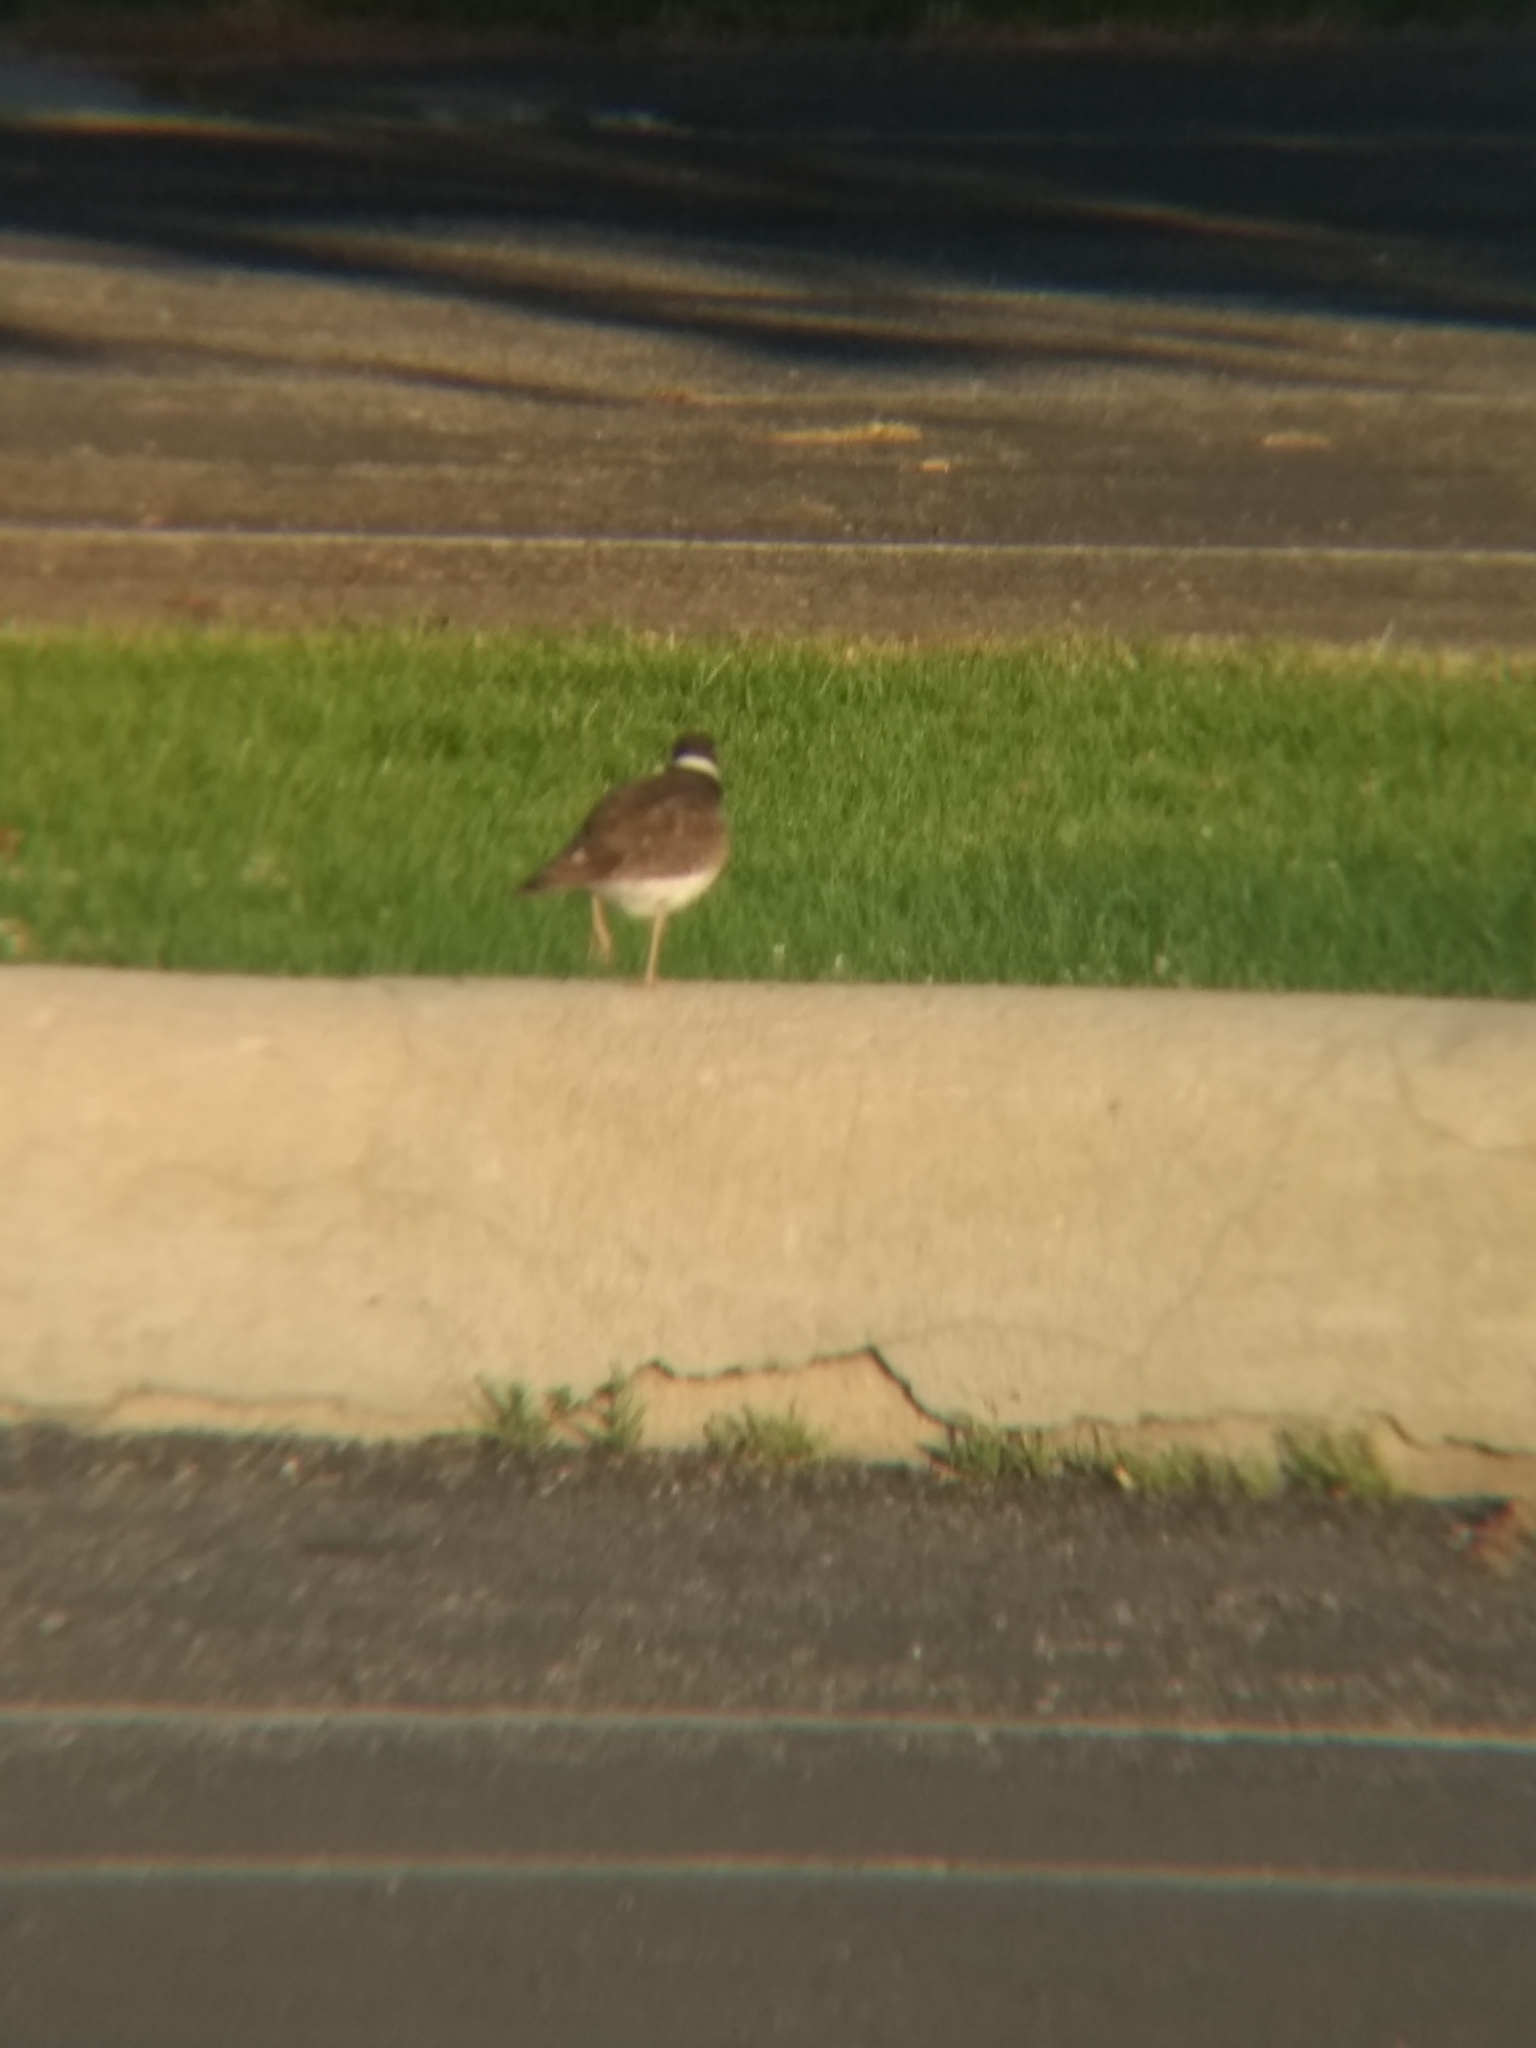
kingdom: Animalia
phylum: Chordata
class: Aves
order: Charadriiformes
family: Charadriidae
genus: Charadrius
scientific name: Charadrius vociferus
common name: Killdeer
